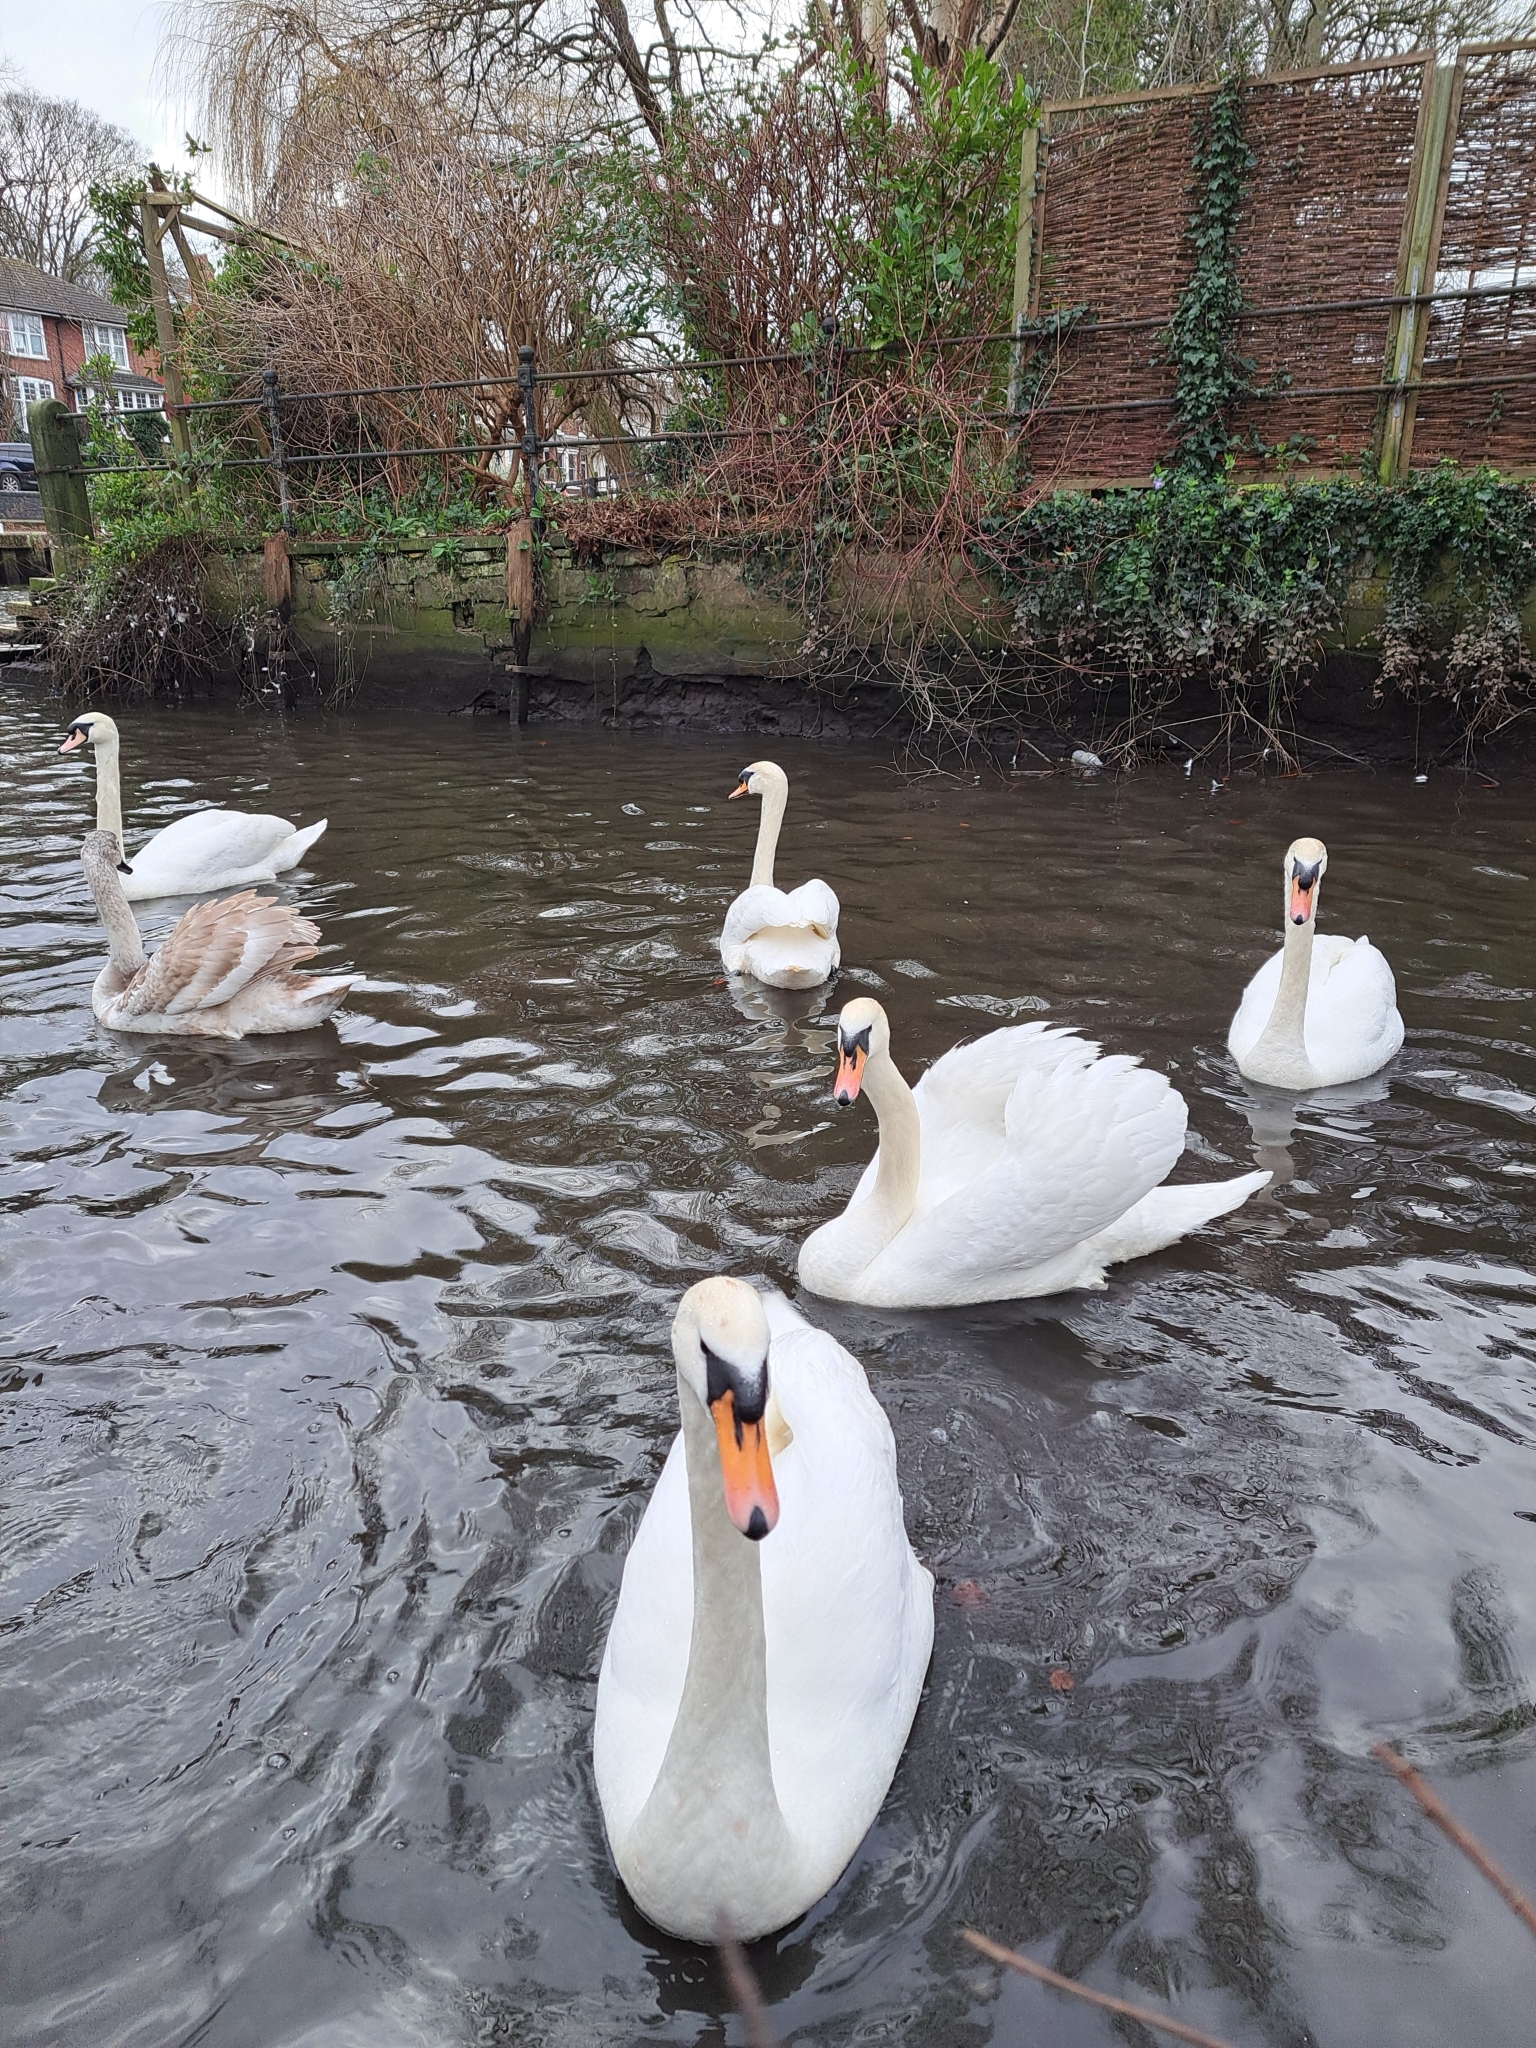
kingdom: Animalia
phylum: Chordata
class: Aves
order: Anseriformes
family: Anatidae
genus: Cygnus
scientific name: Cygnus olor
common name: Mute swan
